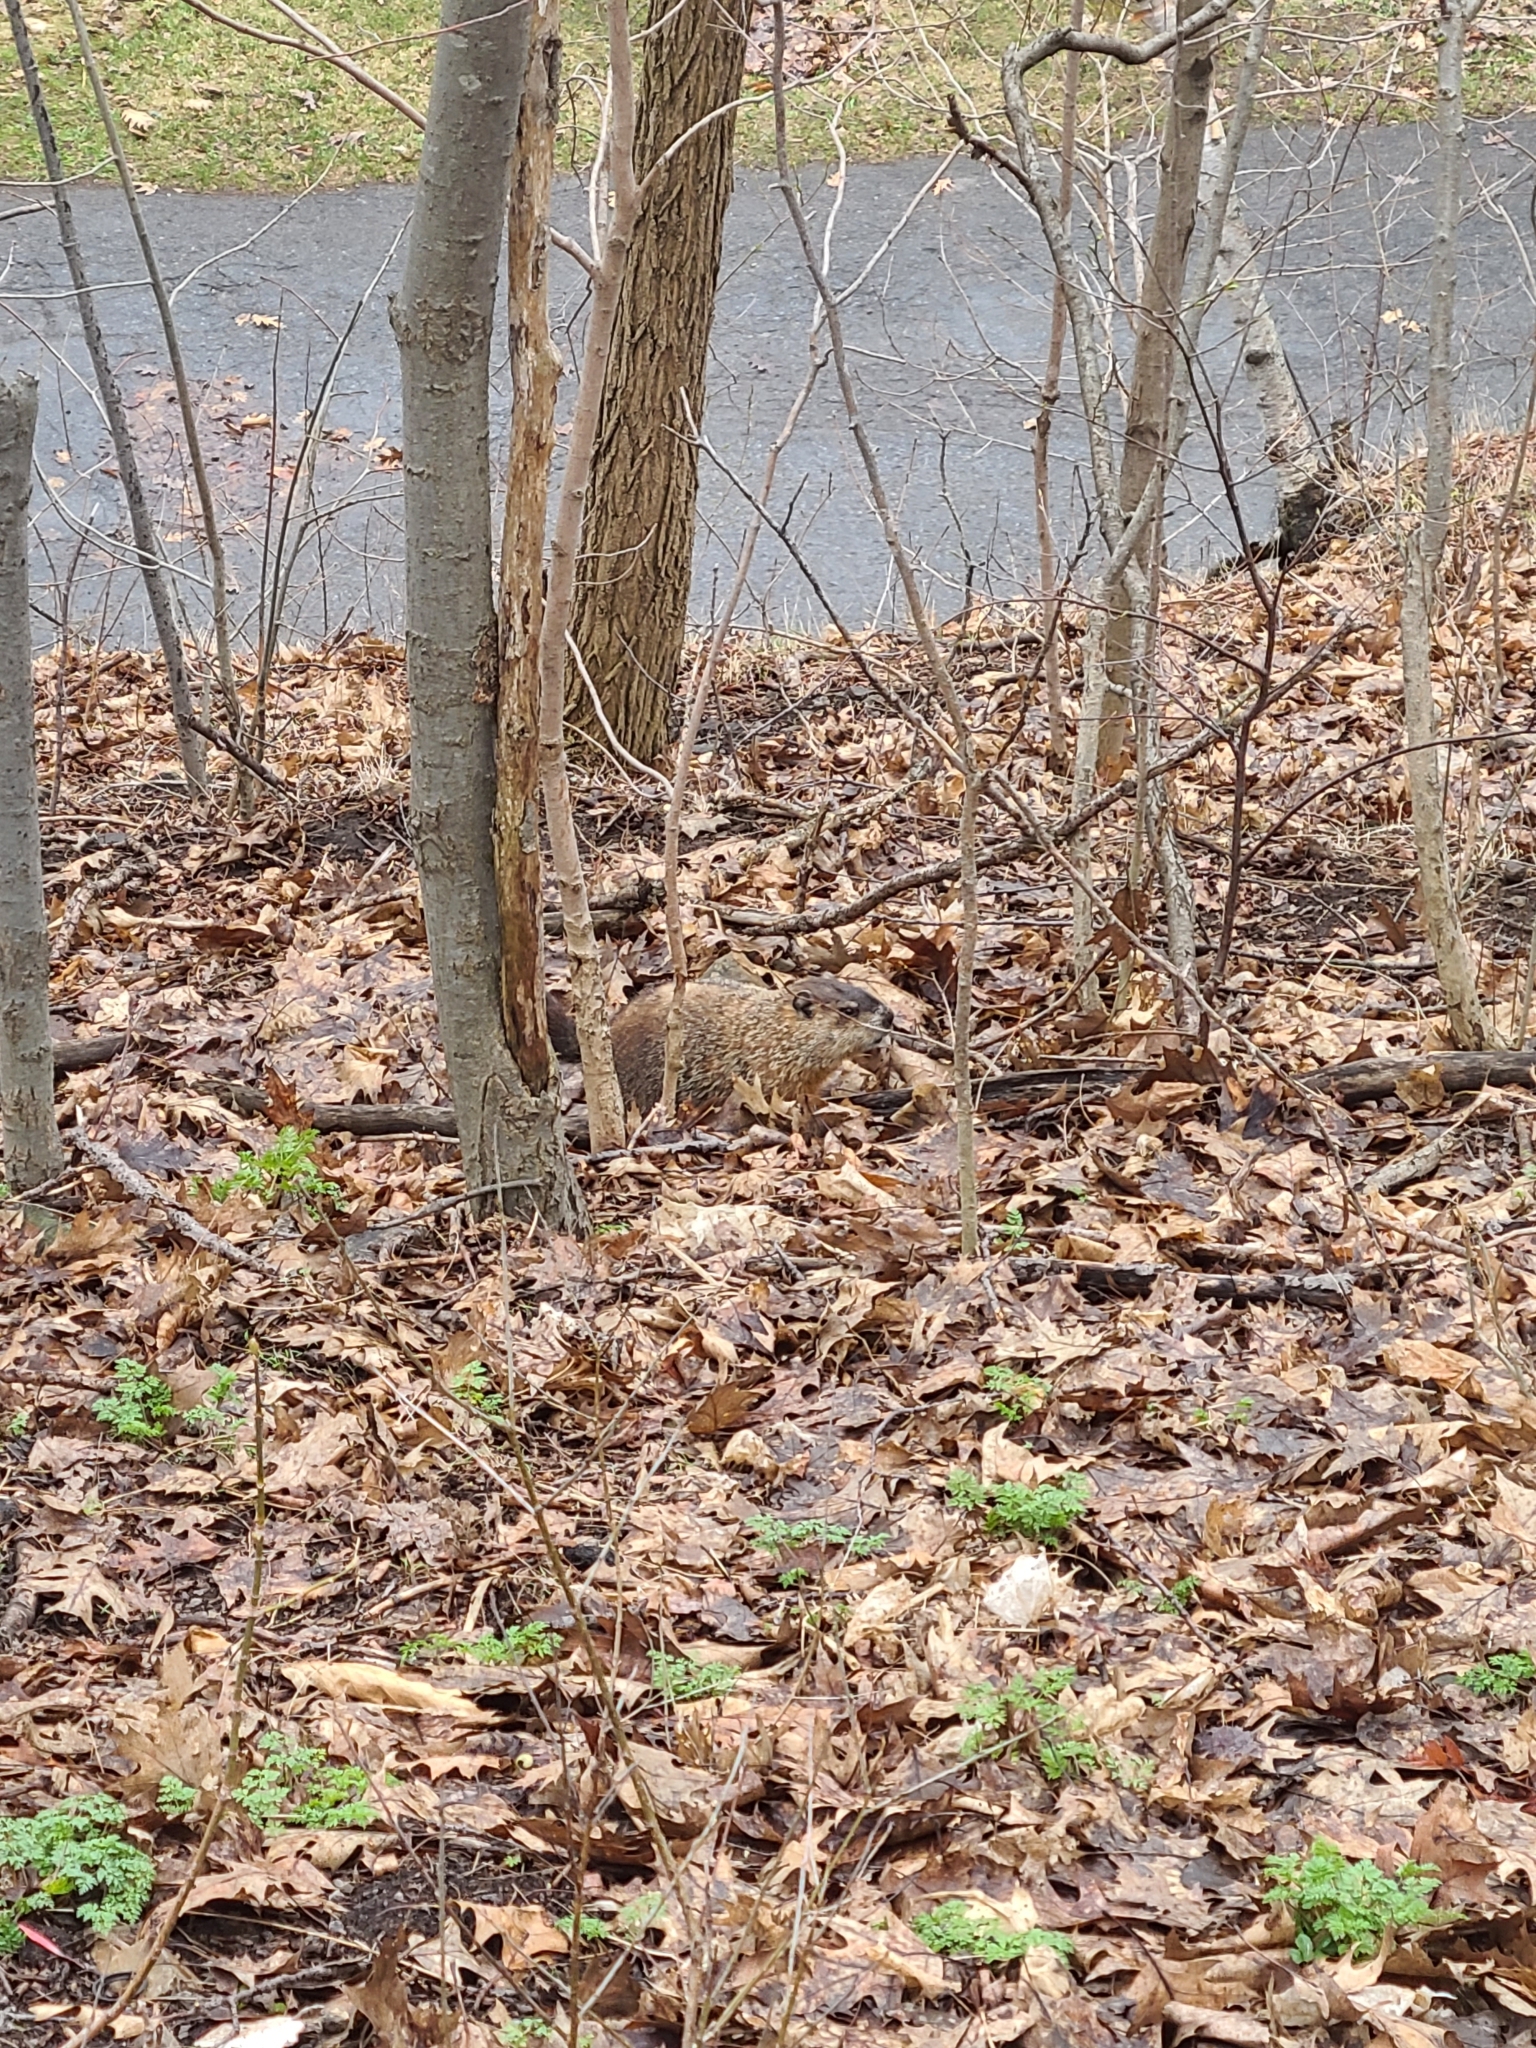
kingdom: Animalia
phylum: Chordata
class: Mammalia
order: Rodentia
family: Sciuridae
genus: Marmota
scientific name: Marmota monax
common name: Groundhog
